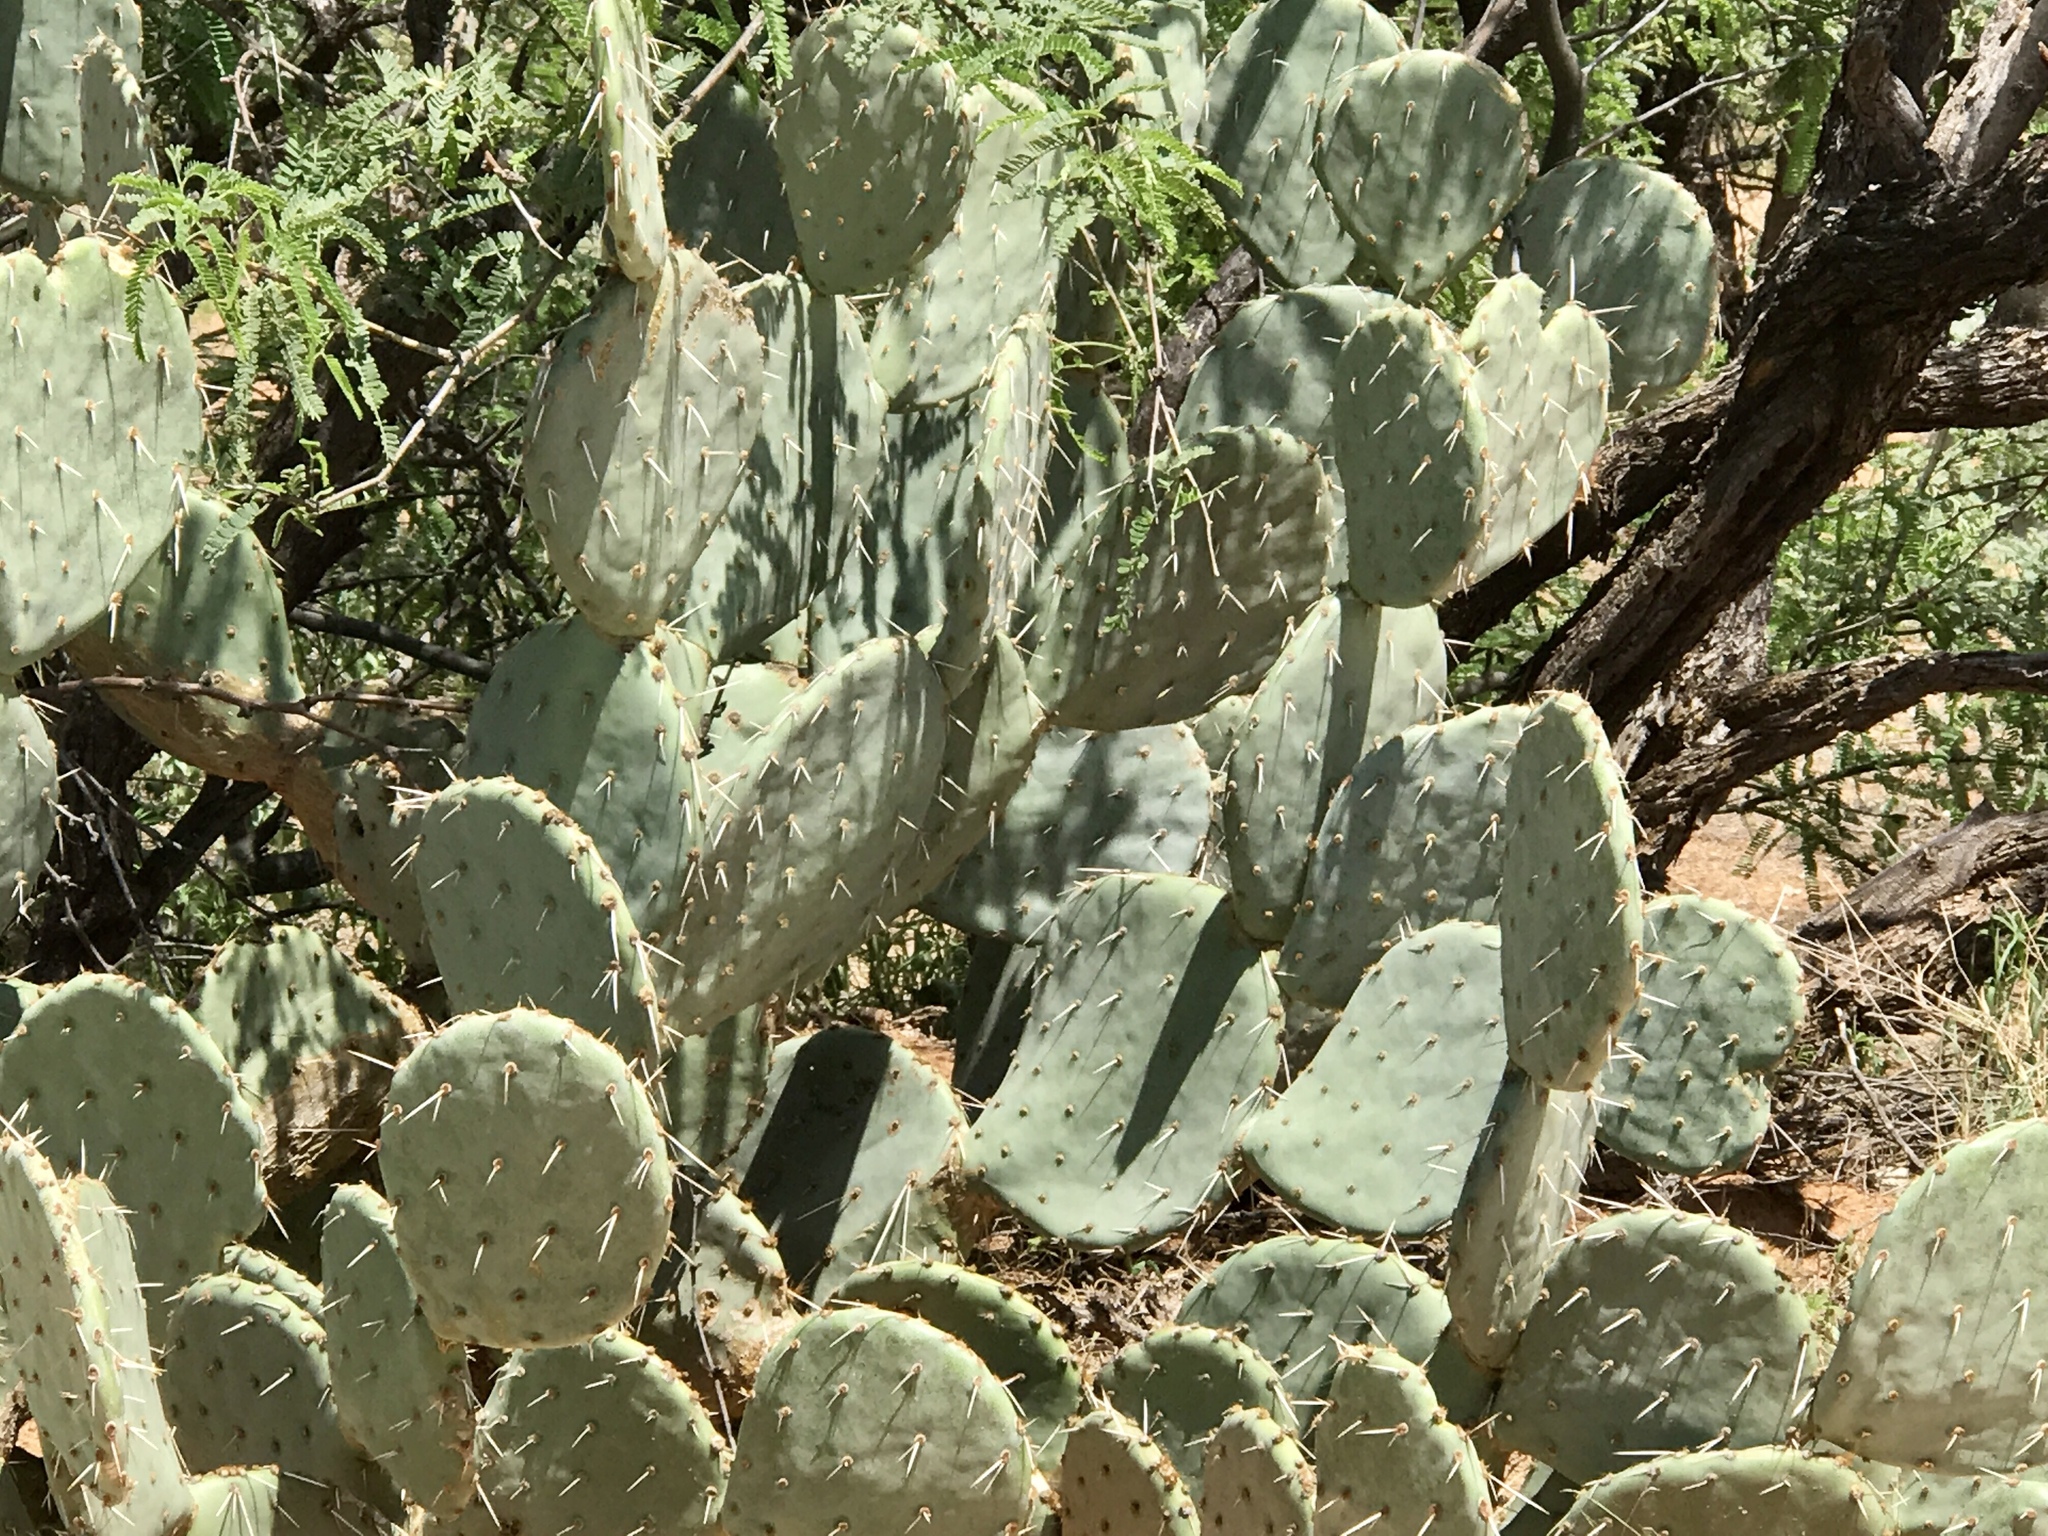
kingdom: Plantae
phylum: Tracheophyta
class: Magnoliopsida
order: Caryophyllales
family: Cactaceae
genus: Opuntia
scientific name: Opuntia engelmannii
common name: Cactus-apple
